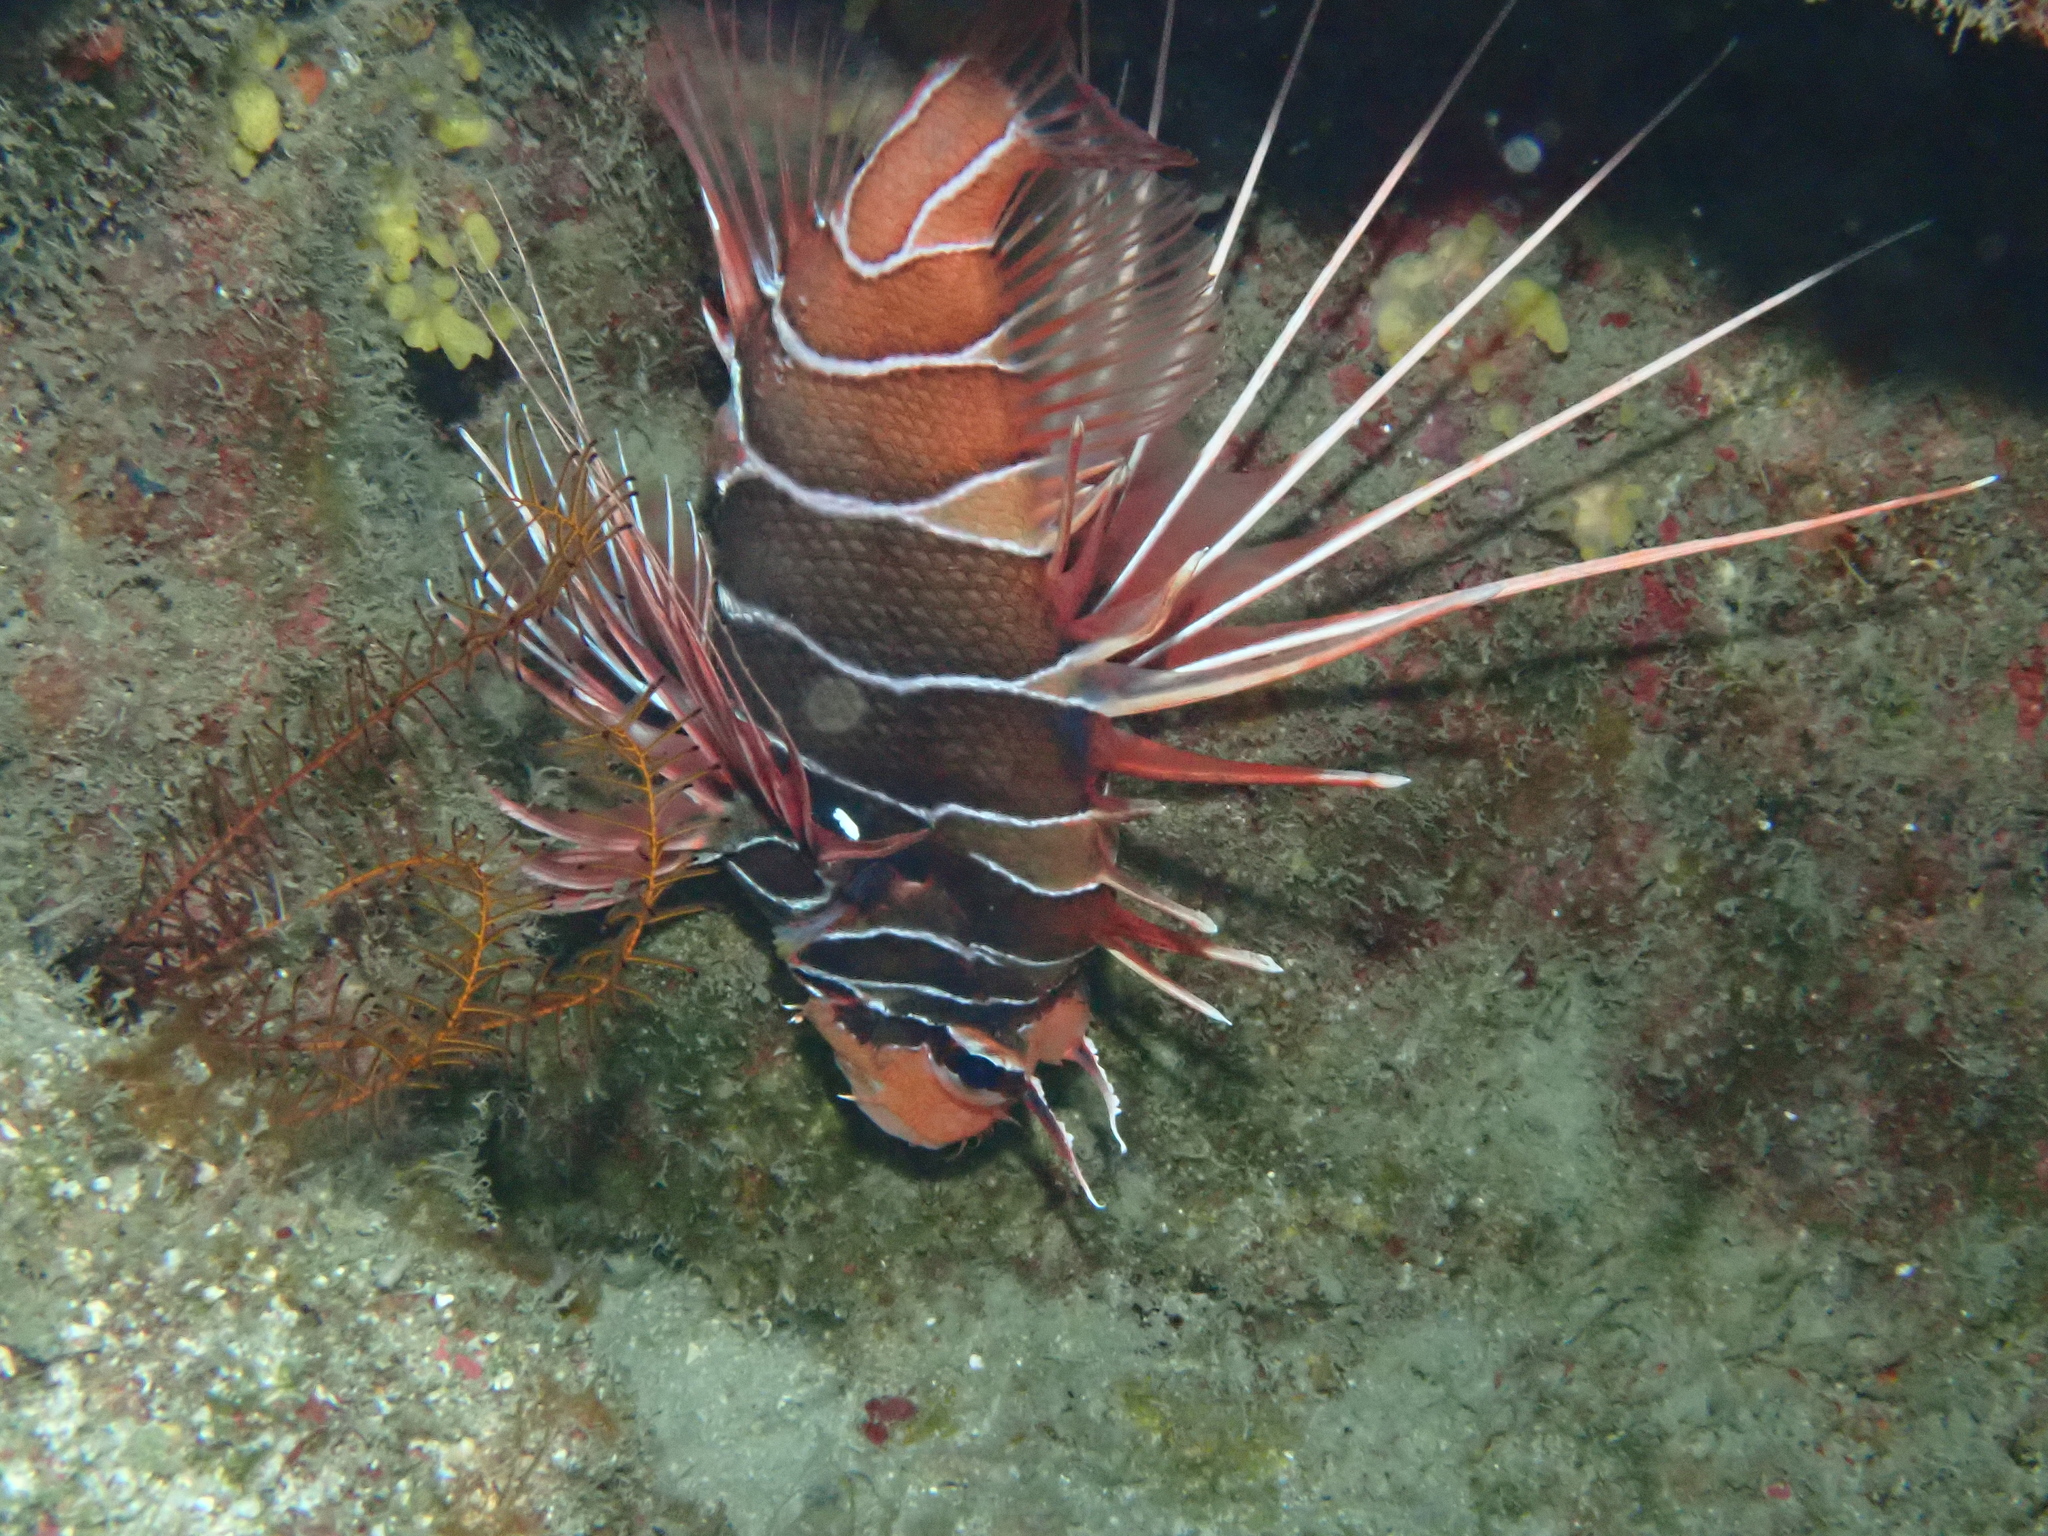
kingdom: Animalia
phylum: Chordata
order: Scorpaeniformes
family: Scorpaenidae
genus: Pterois
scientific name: Pterois radiata
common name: Radial firefish
